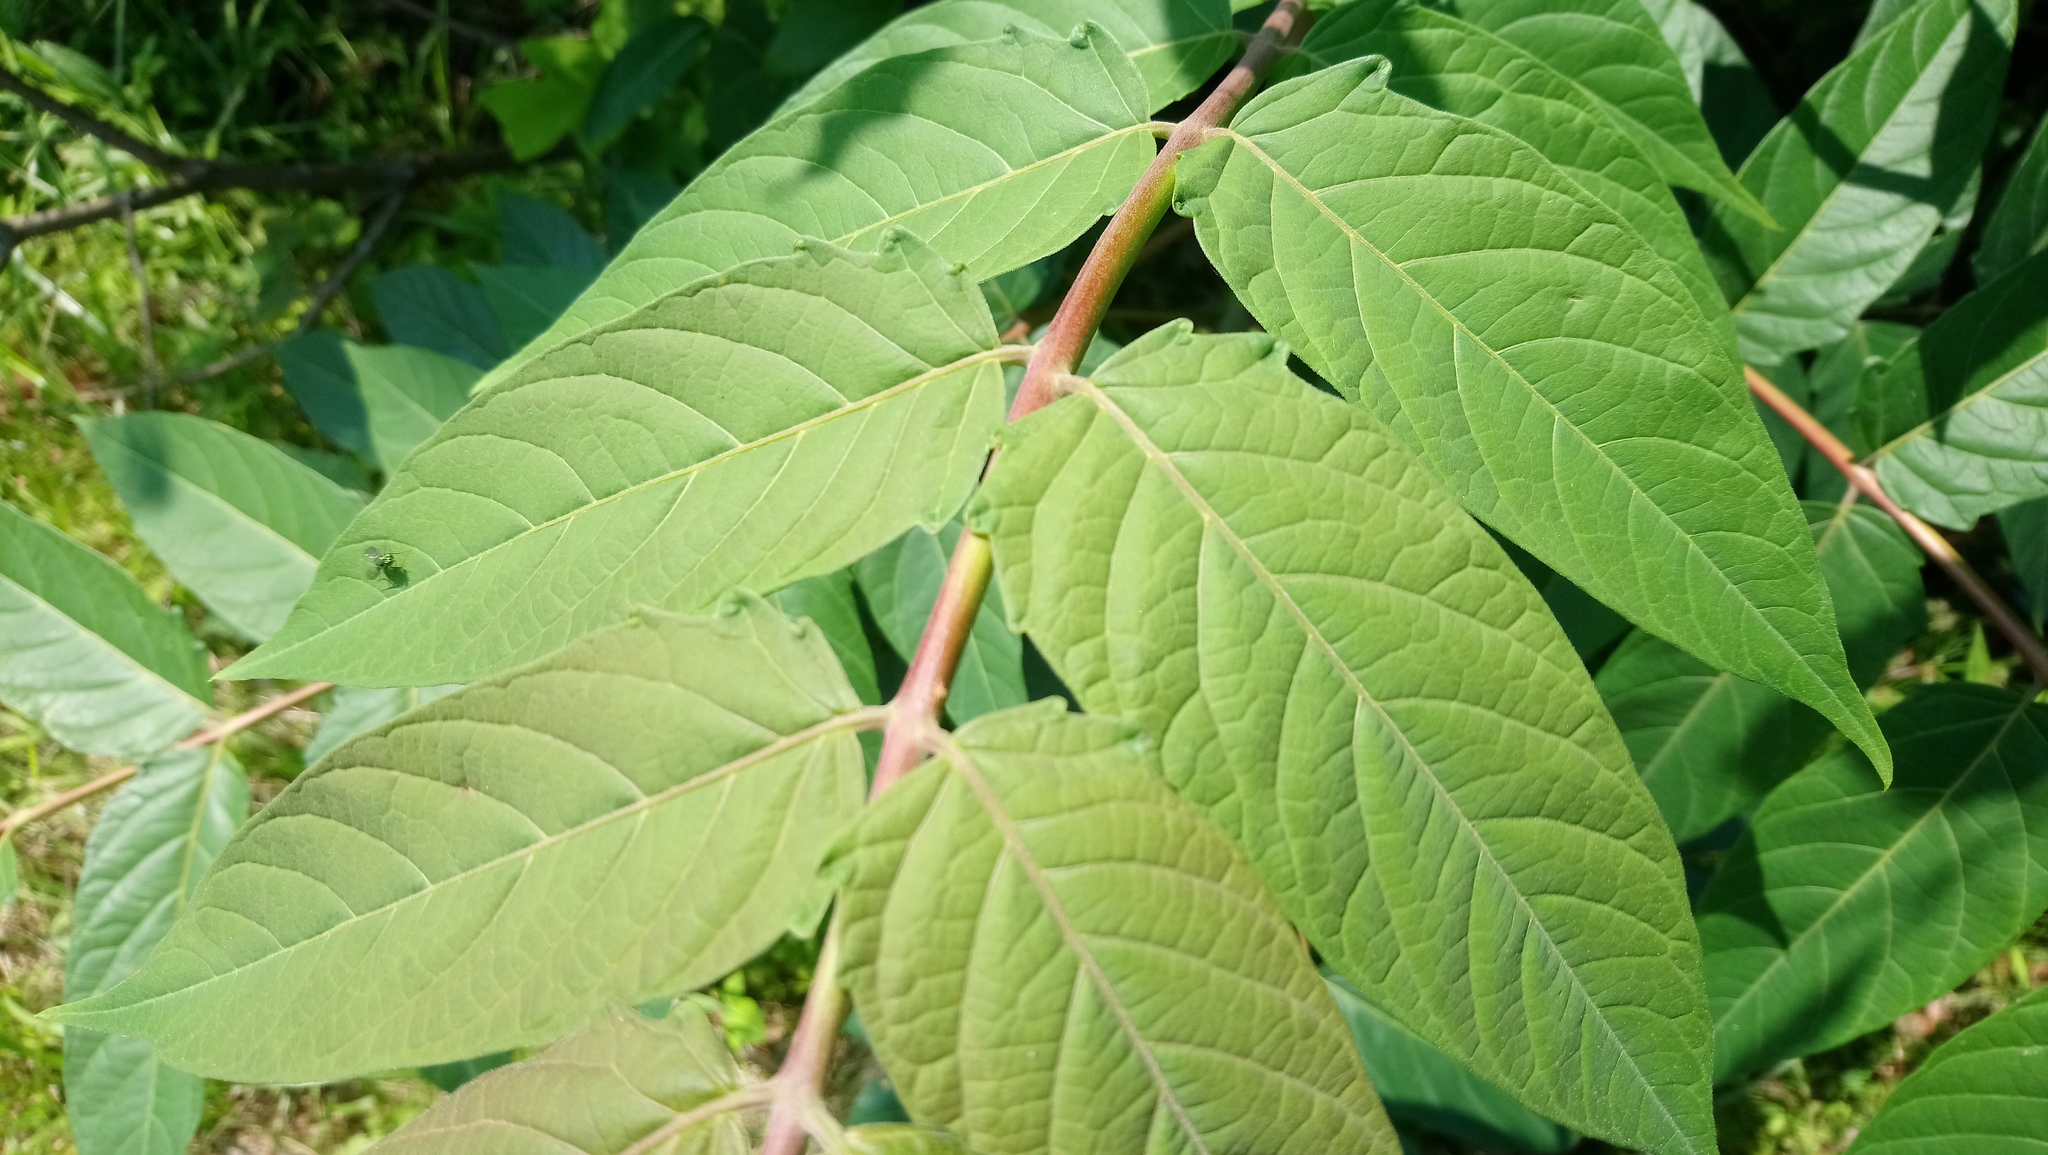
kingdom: Plantae
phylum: Tracheophyta
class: Magnoliopsida
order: Sapindales
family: Simaroubaceae
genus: Ailanthus
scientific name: Ailanthus altissima
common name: Tree-of-heaven
